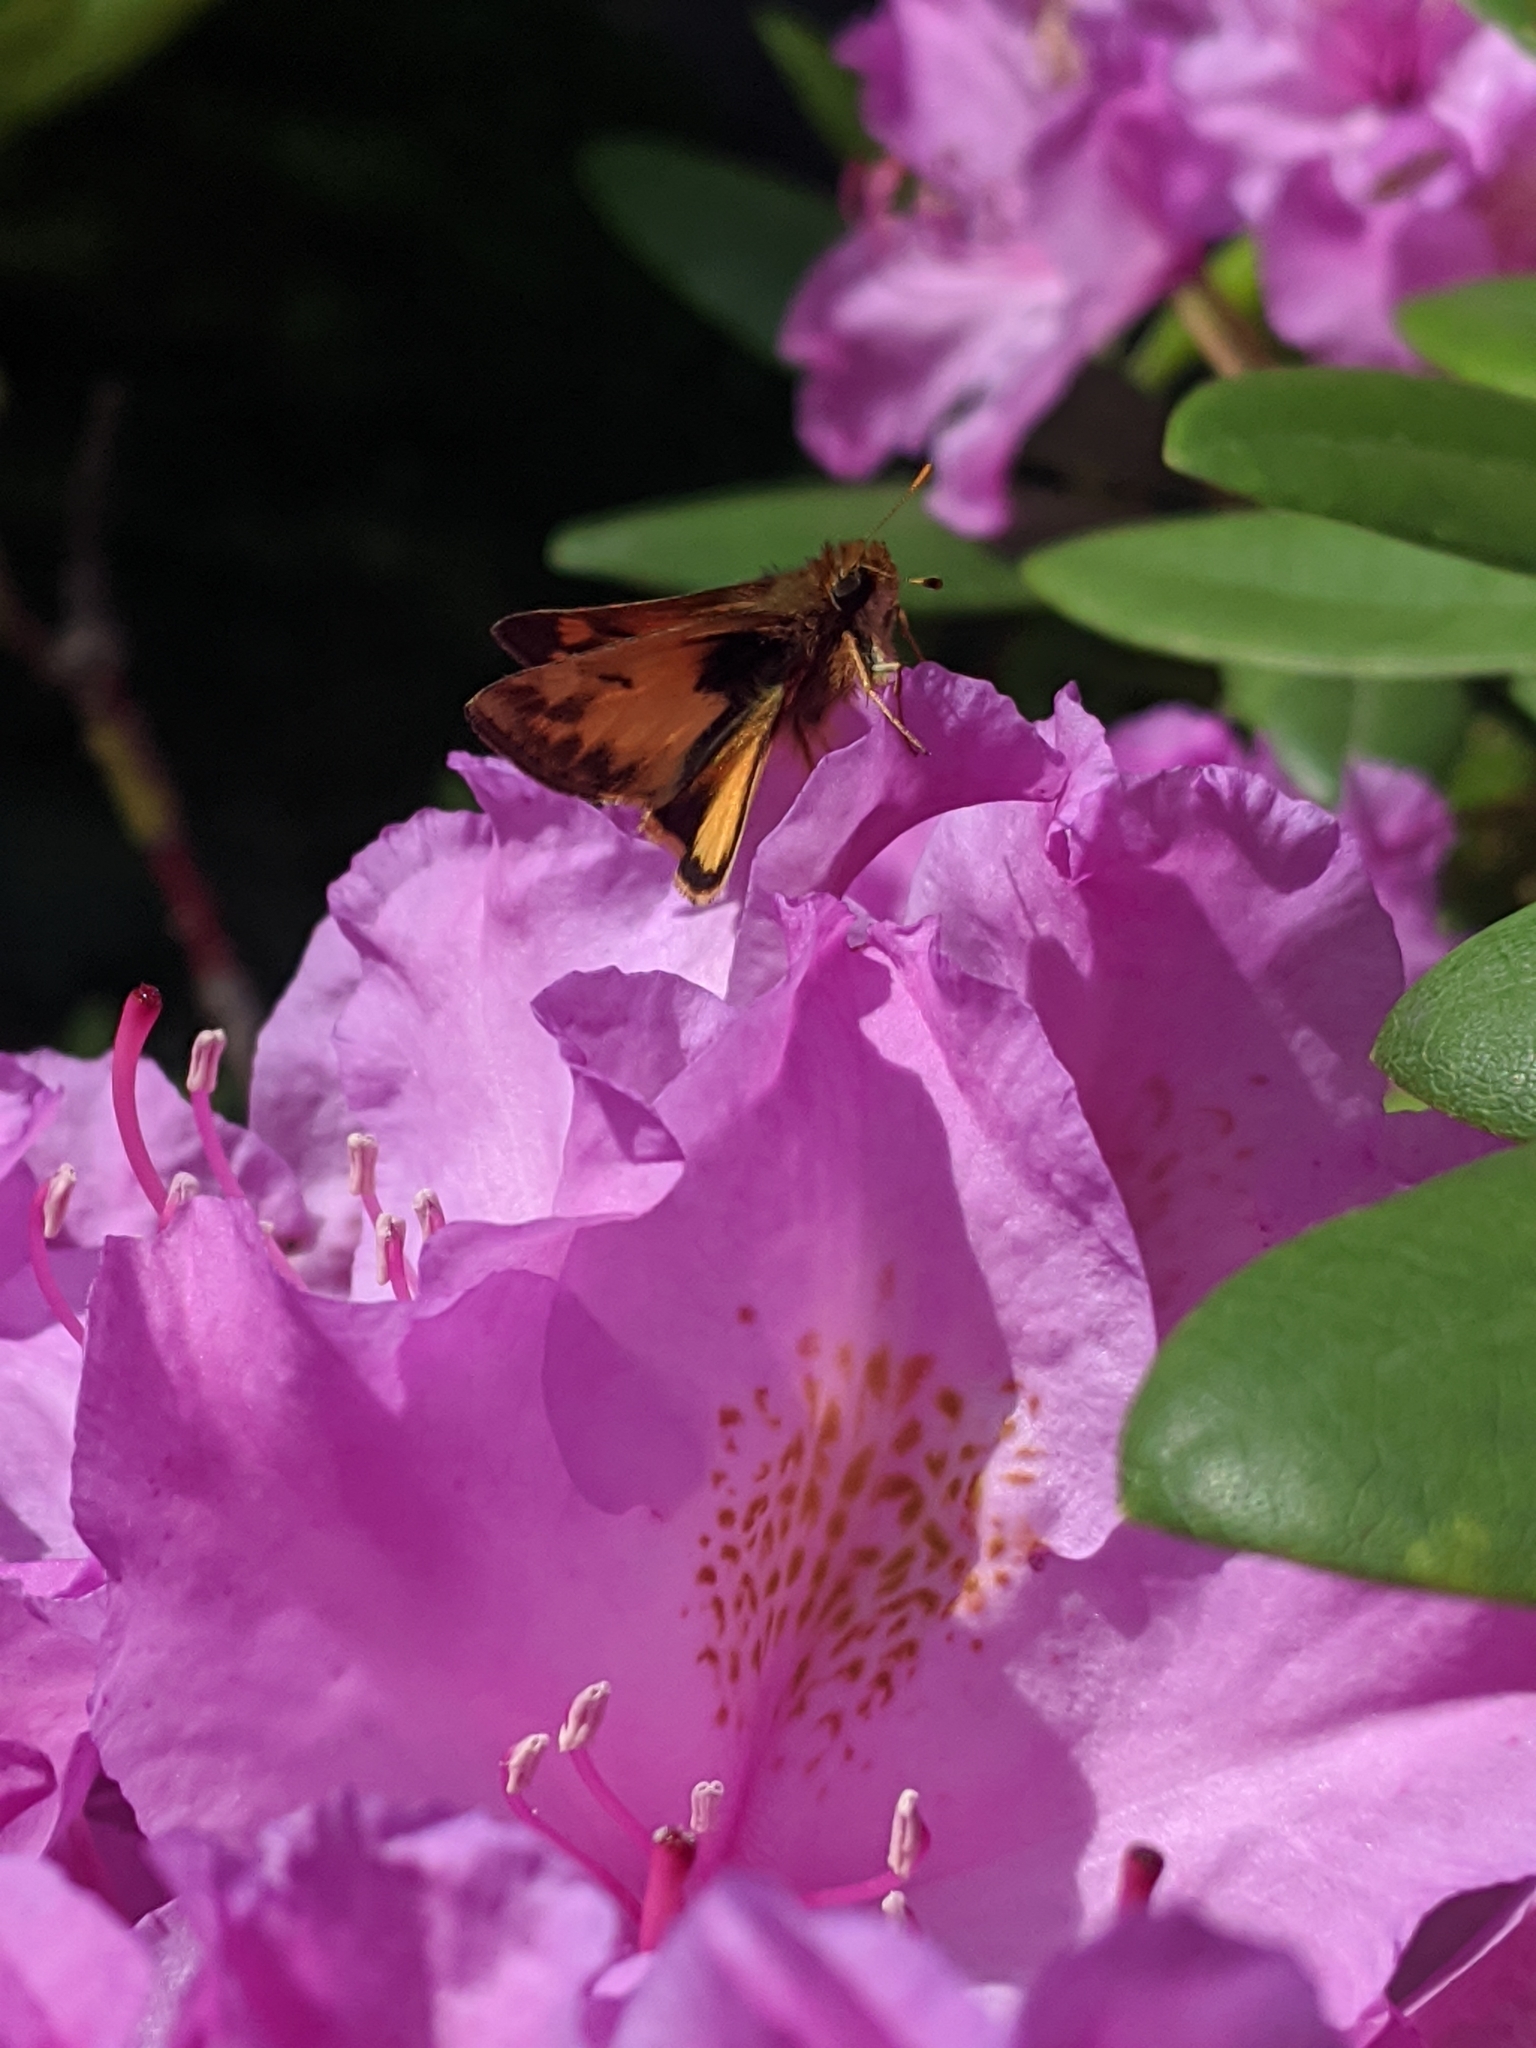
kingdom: Animalia
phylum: Arthropoda
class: Insecta
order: Lepidoptera
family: Hesperiidae
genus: Lon
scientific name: Lon zabulon
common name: Zabulon skipper
